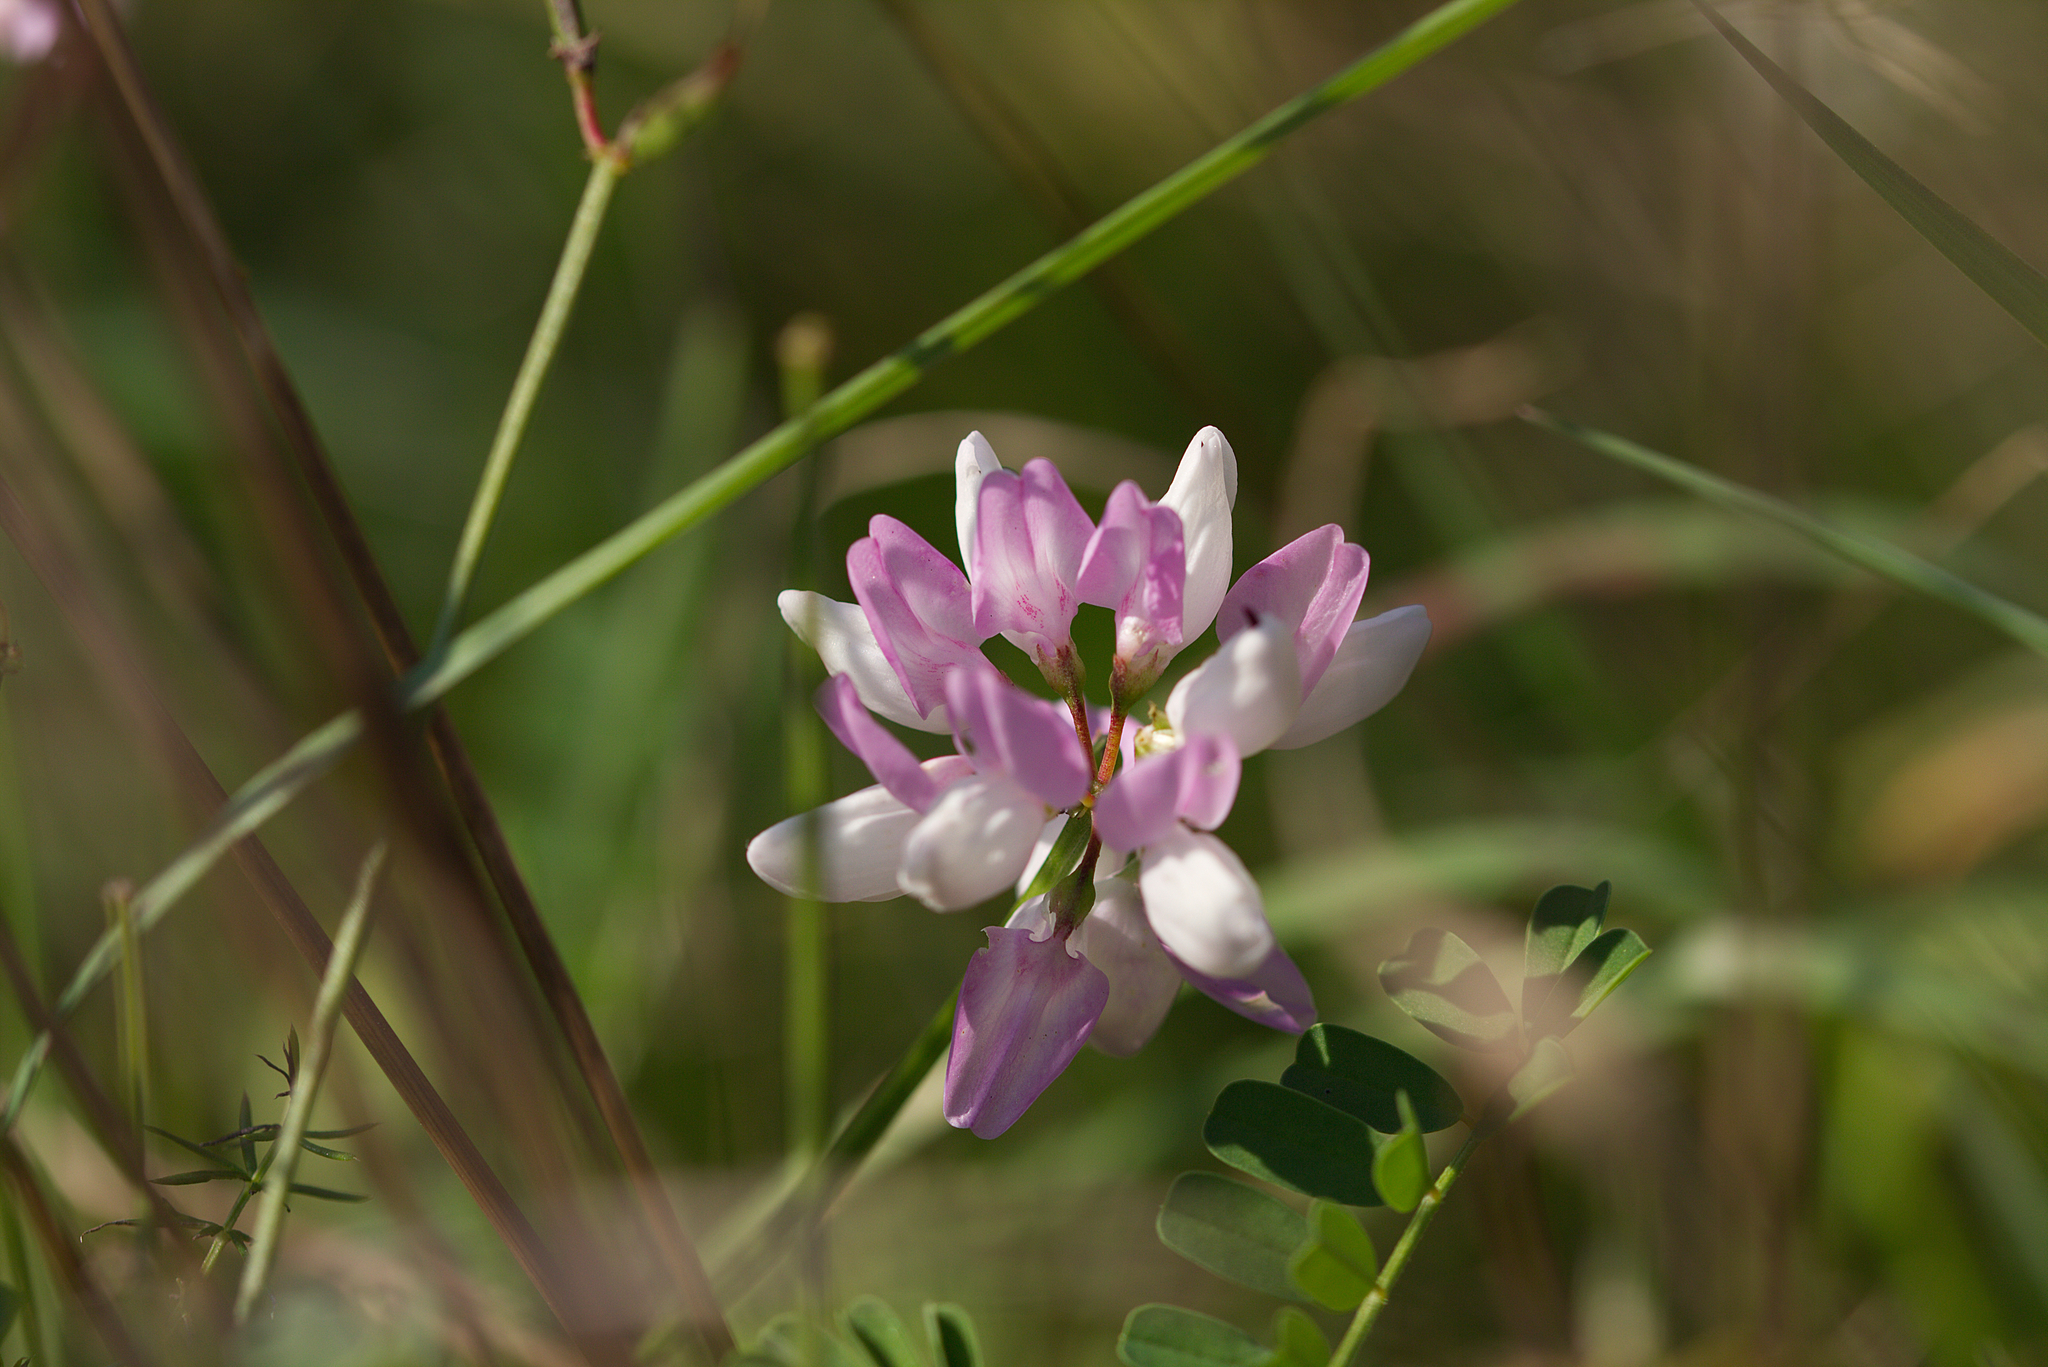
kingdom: Plantae
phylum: Tracheophyta
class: Magnoliopsida
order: Fabales
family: Fabaceae
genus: Coronilla
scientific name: Coronilla varia
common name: Crownvetch
